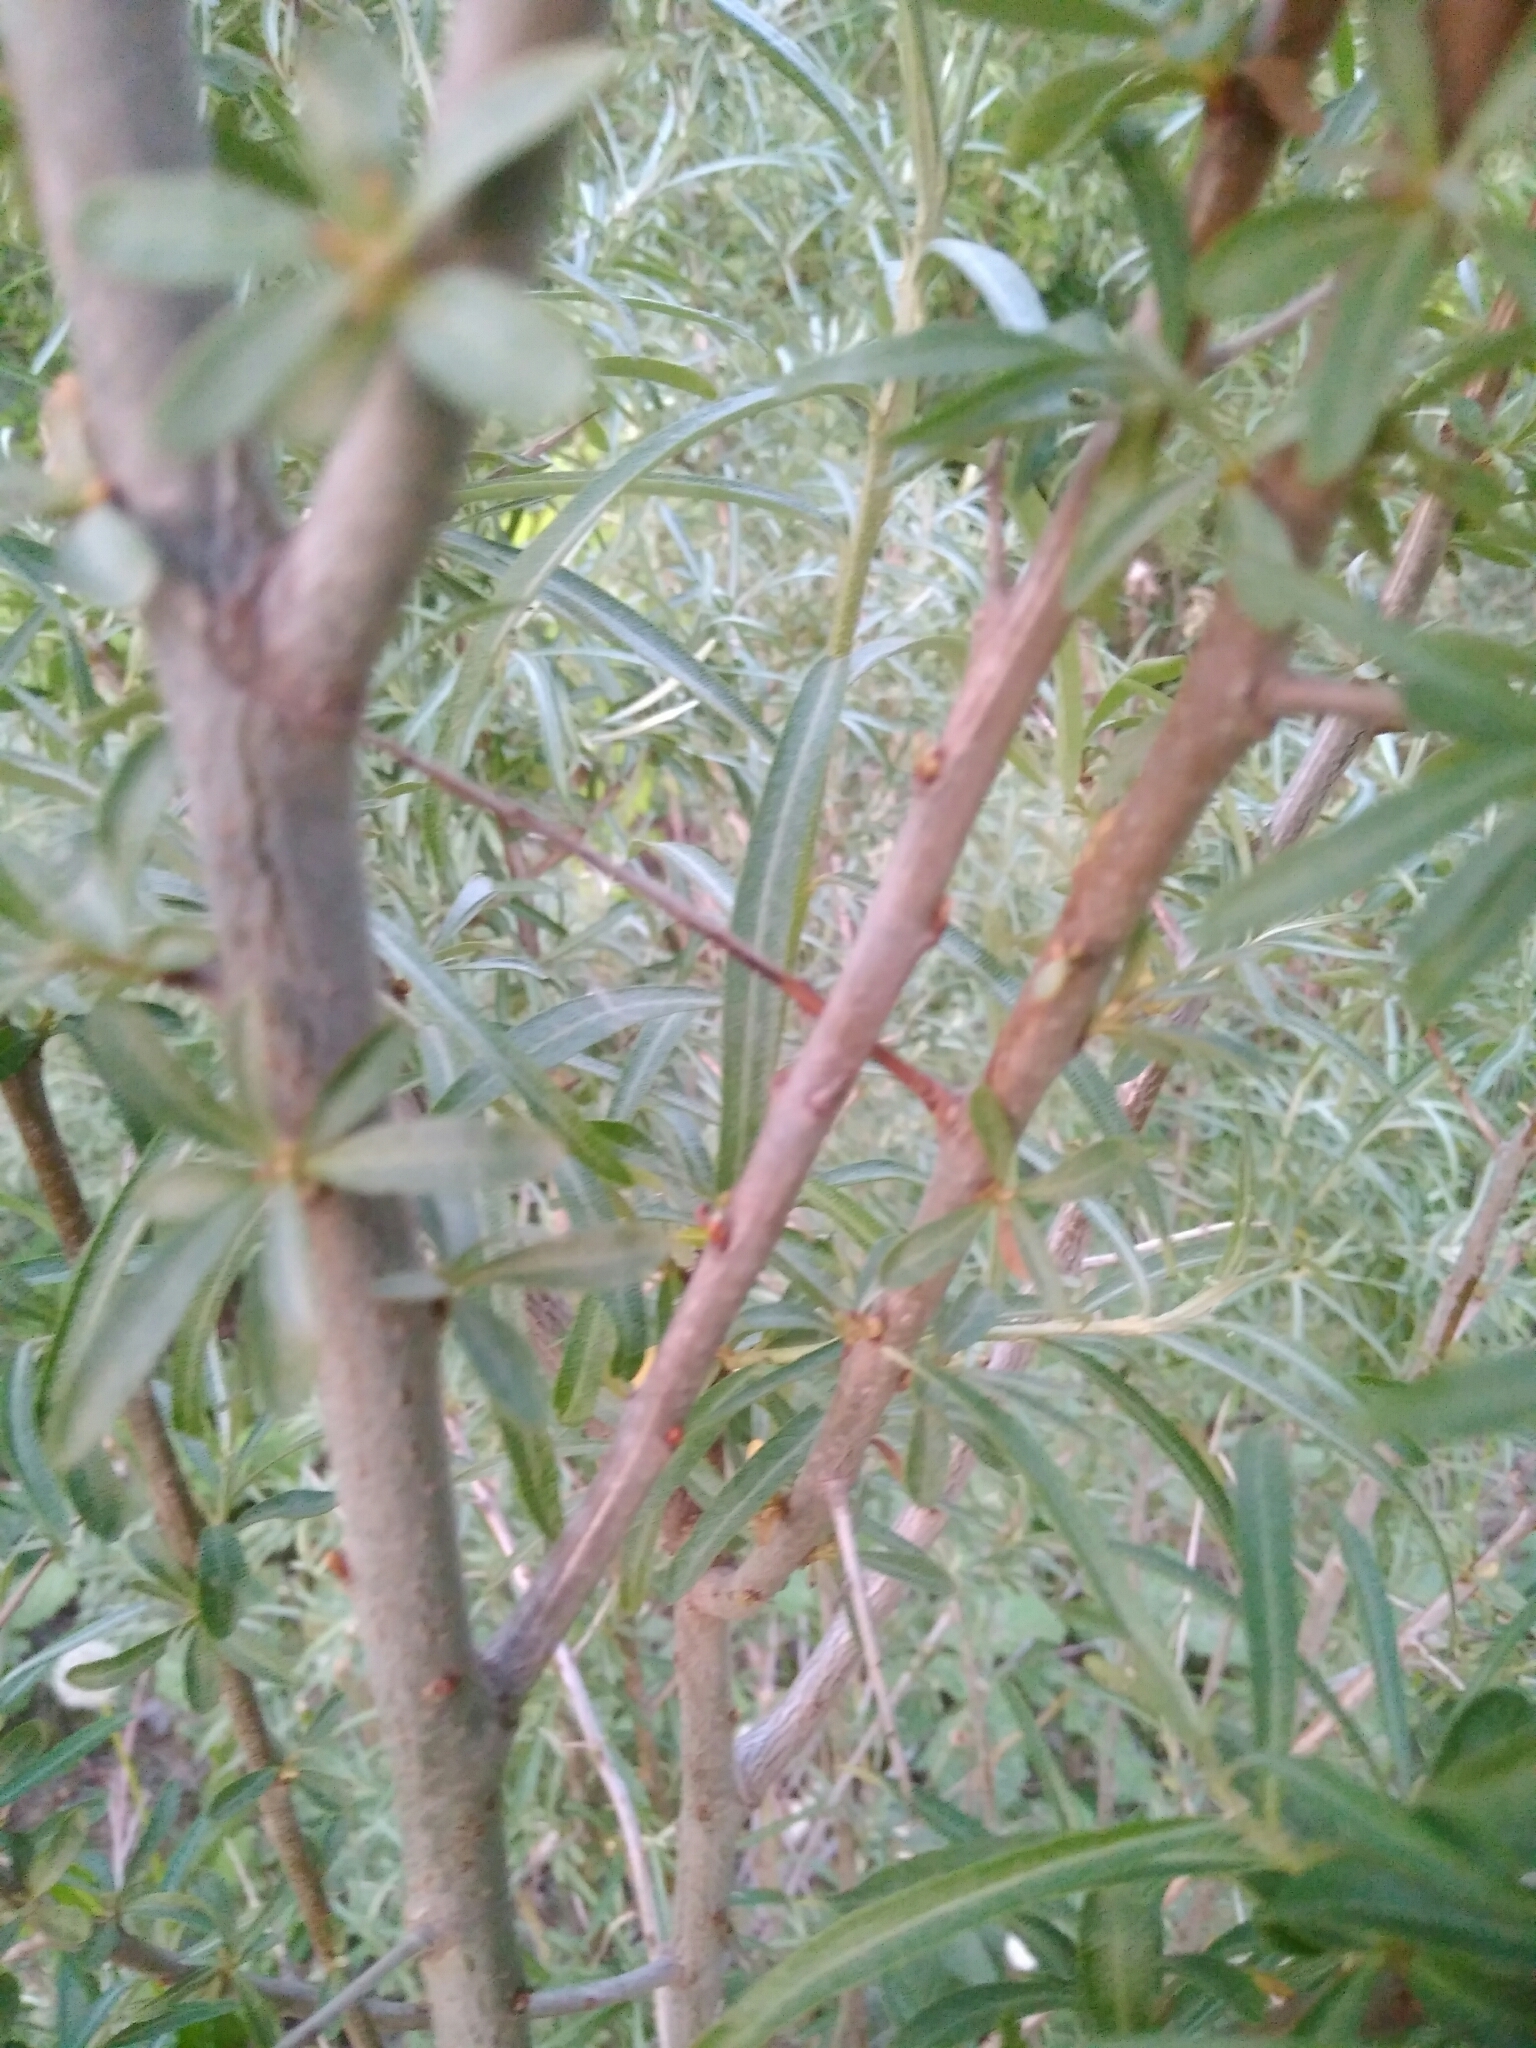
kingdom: Plantae
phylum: Tracheophyta
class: Magnoliopsida
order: Rosales
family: Elaeagnaceae
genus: Hippophae
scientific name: Hippophae rhamnoides
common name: Sea-buckthorn
